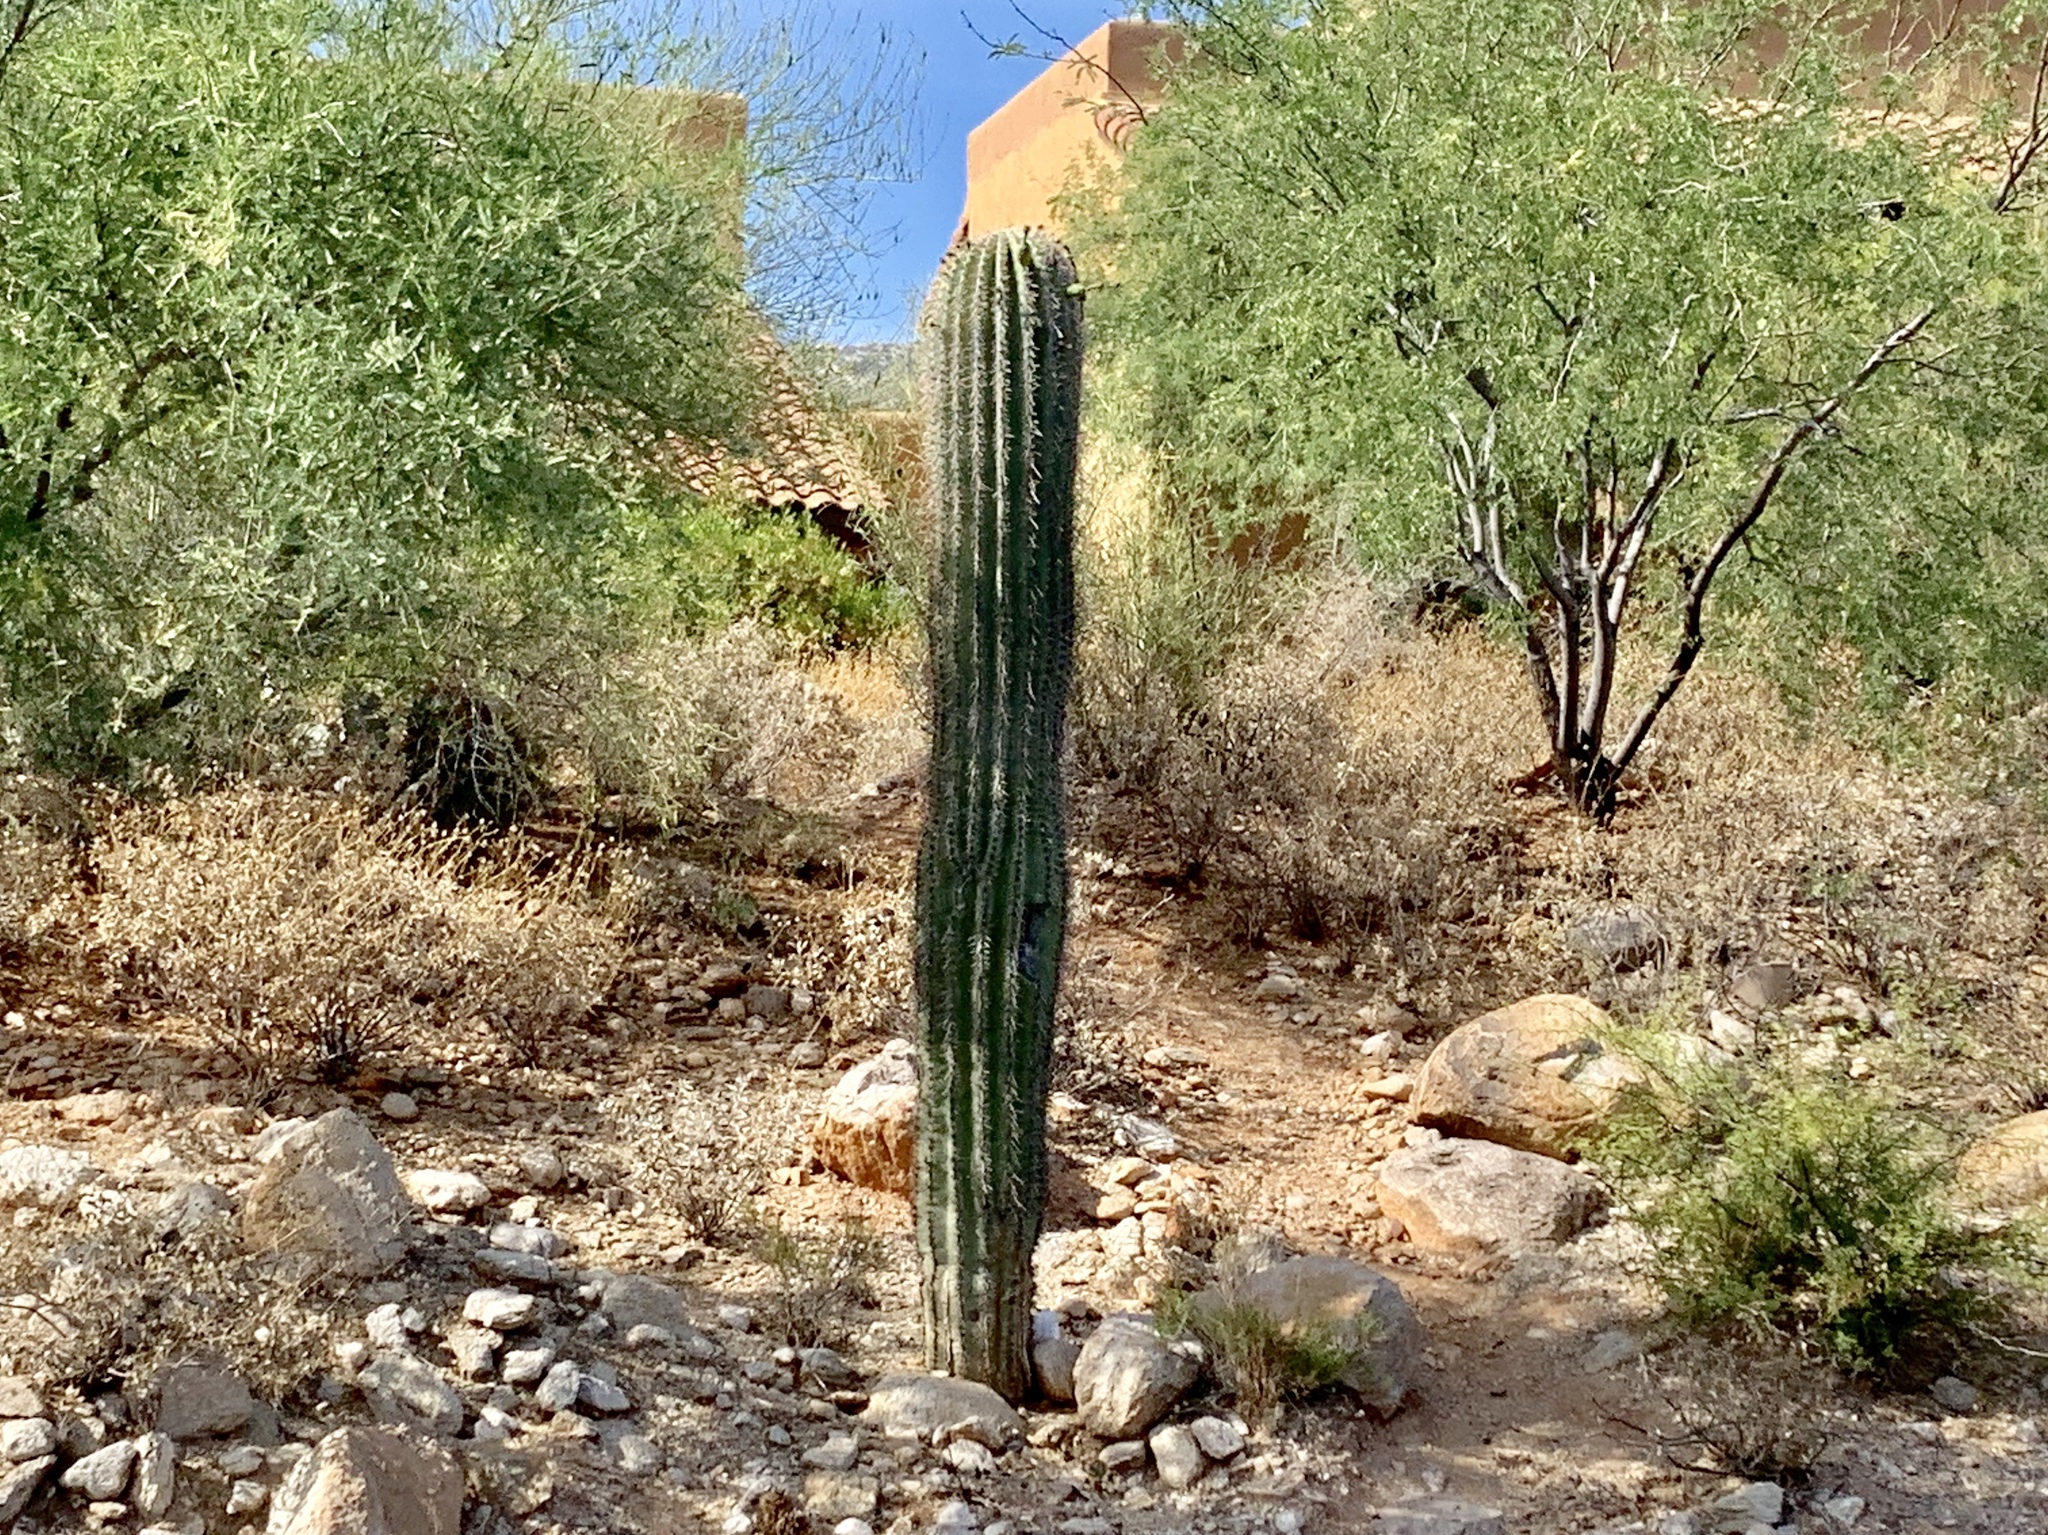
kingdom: Plantae
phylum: Tracheophyta
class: Magnoliopsida
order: Caryophyllales
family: Cactaceae
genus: Carnegiea
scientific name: Carnegiea gigantea
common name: Saguaro
